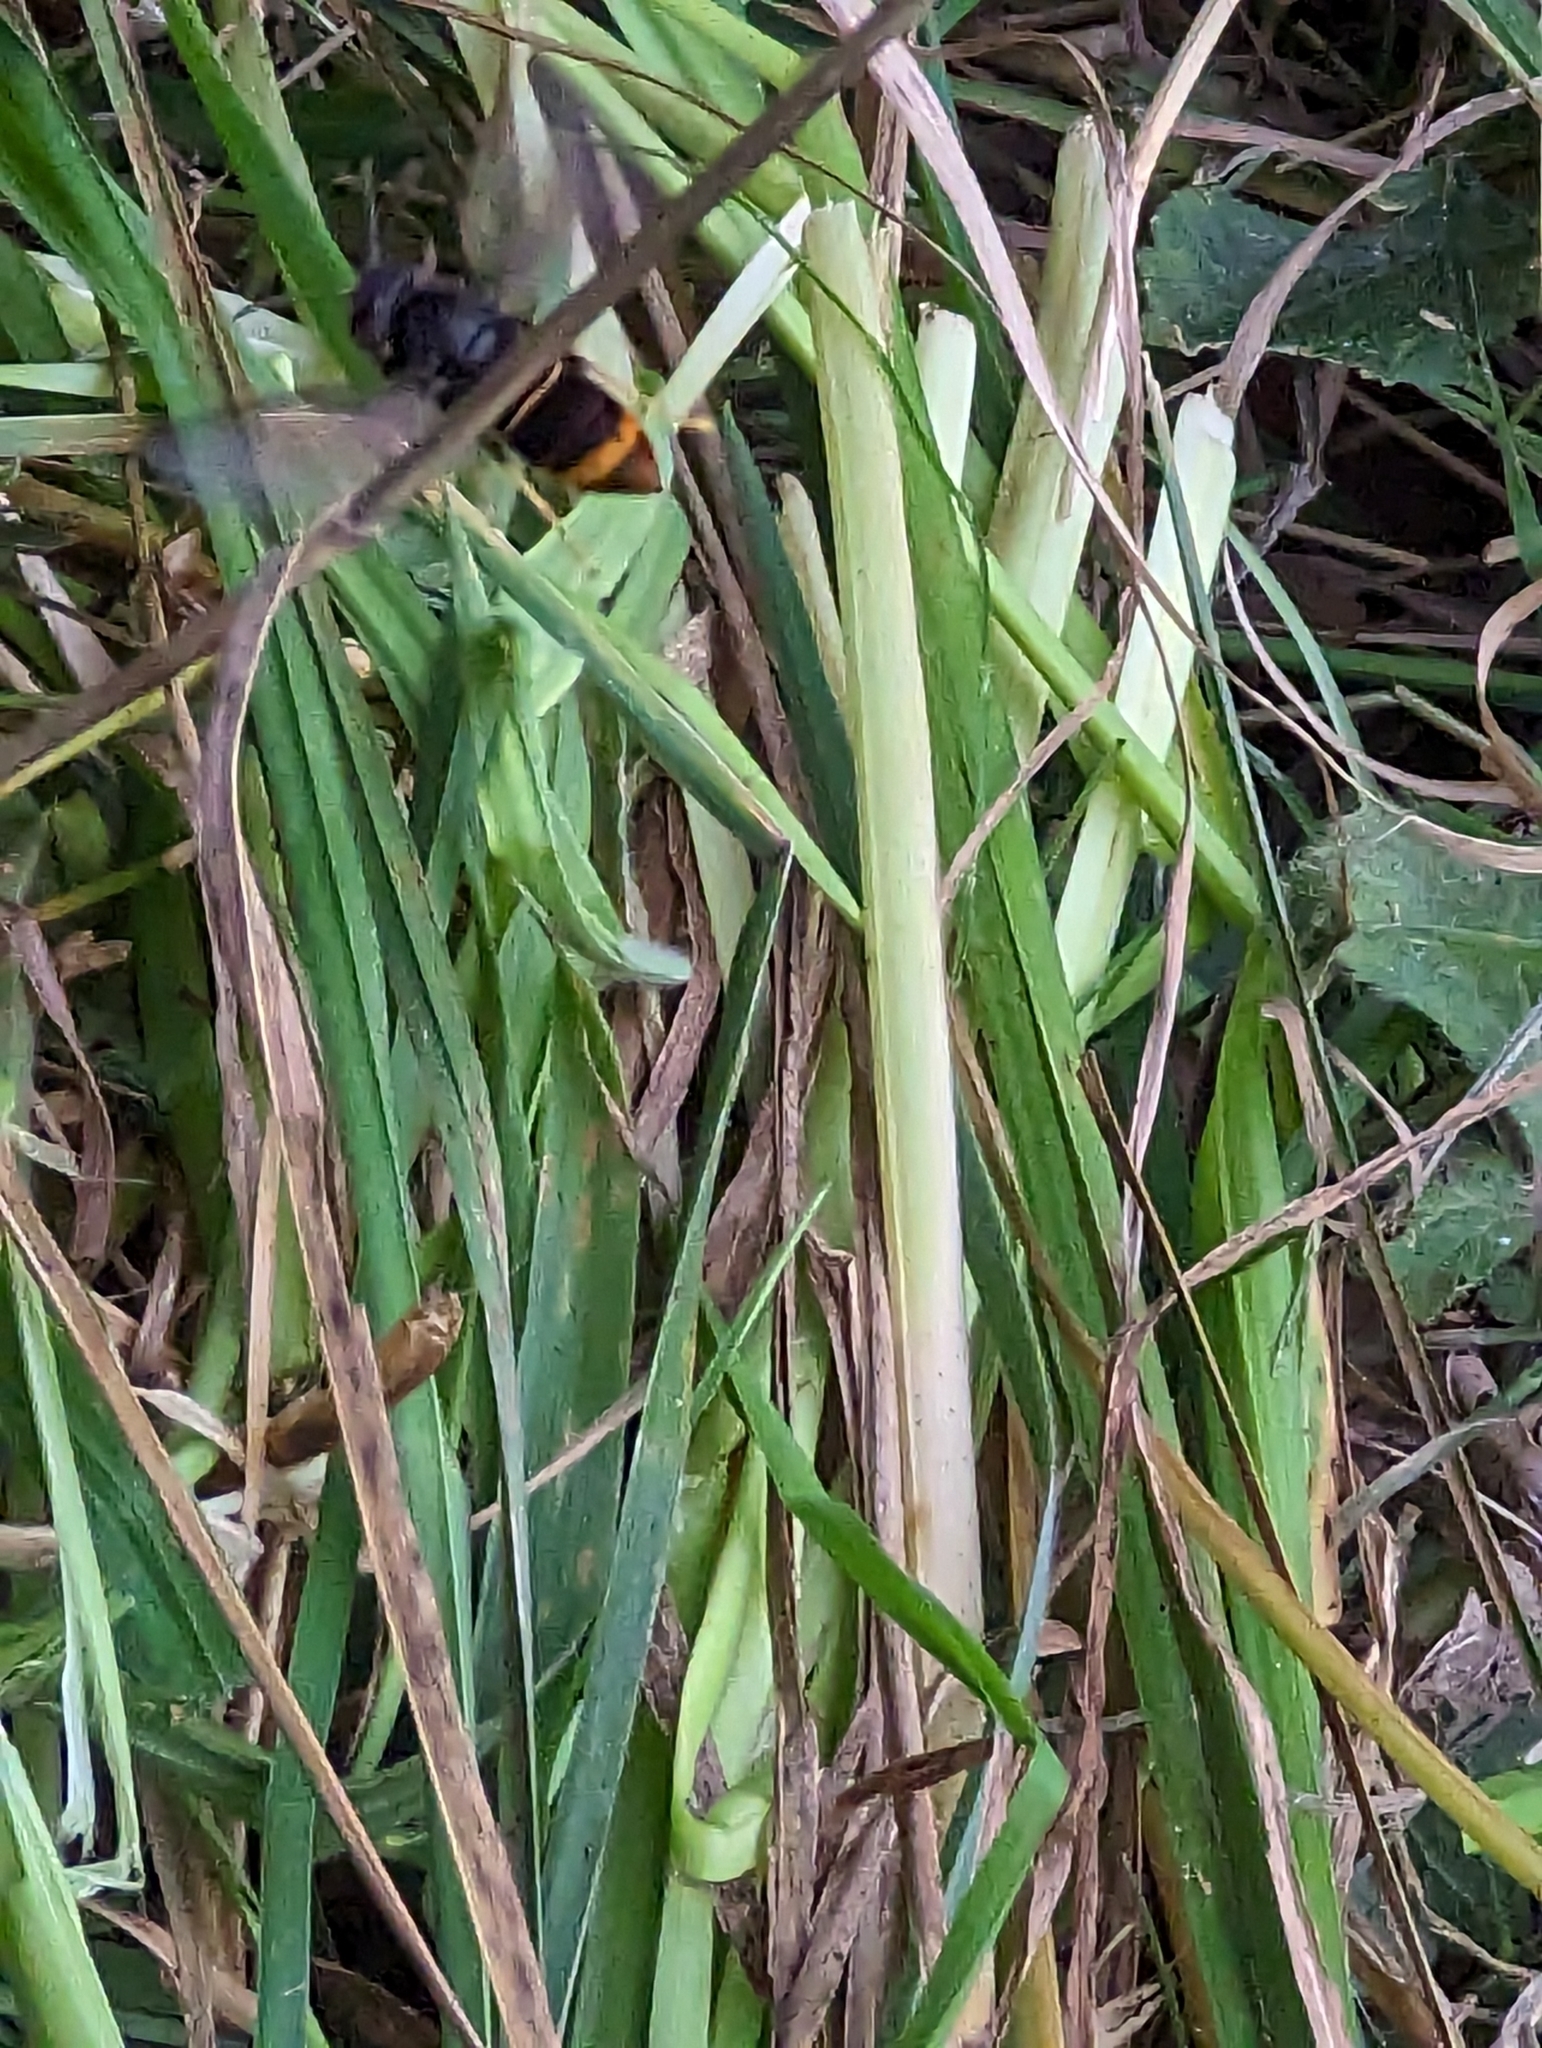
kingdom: Animalia
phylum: Arthropoda
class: Insecta
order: Hymenoptera
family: Vespidae
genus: Vespa
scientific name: Vespa velutina
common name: Asian hornet
